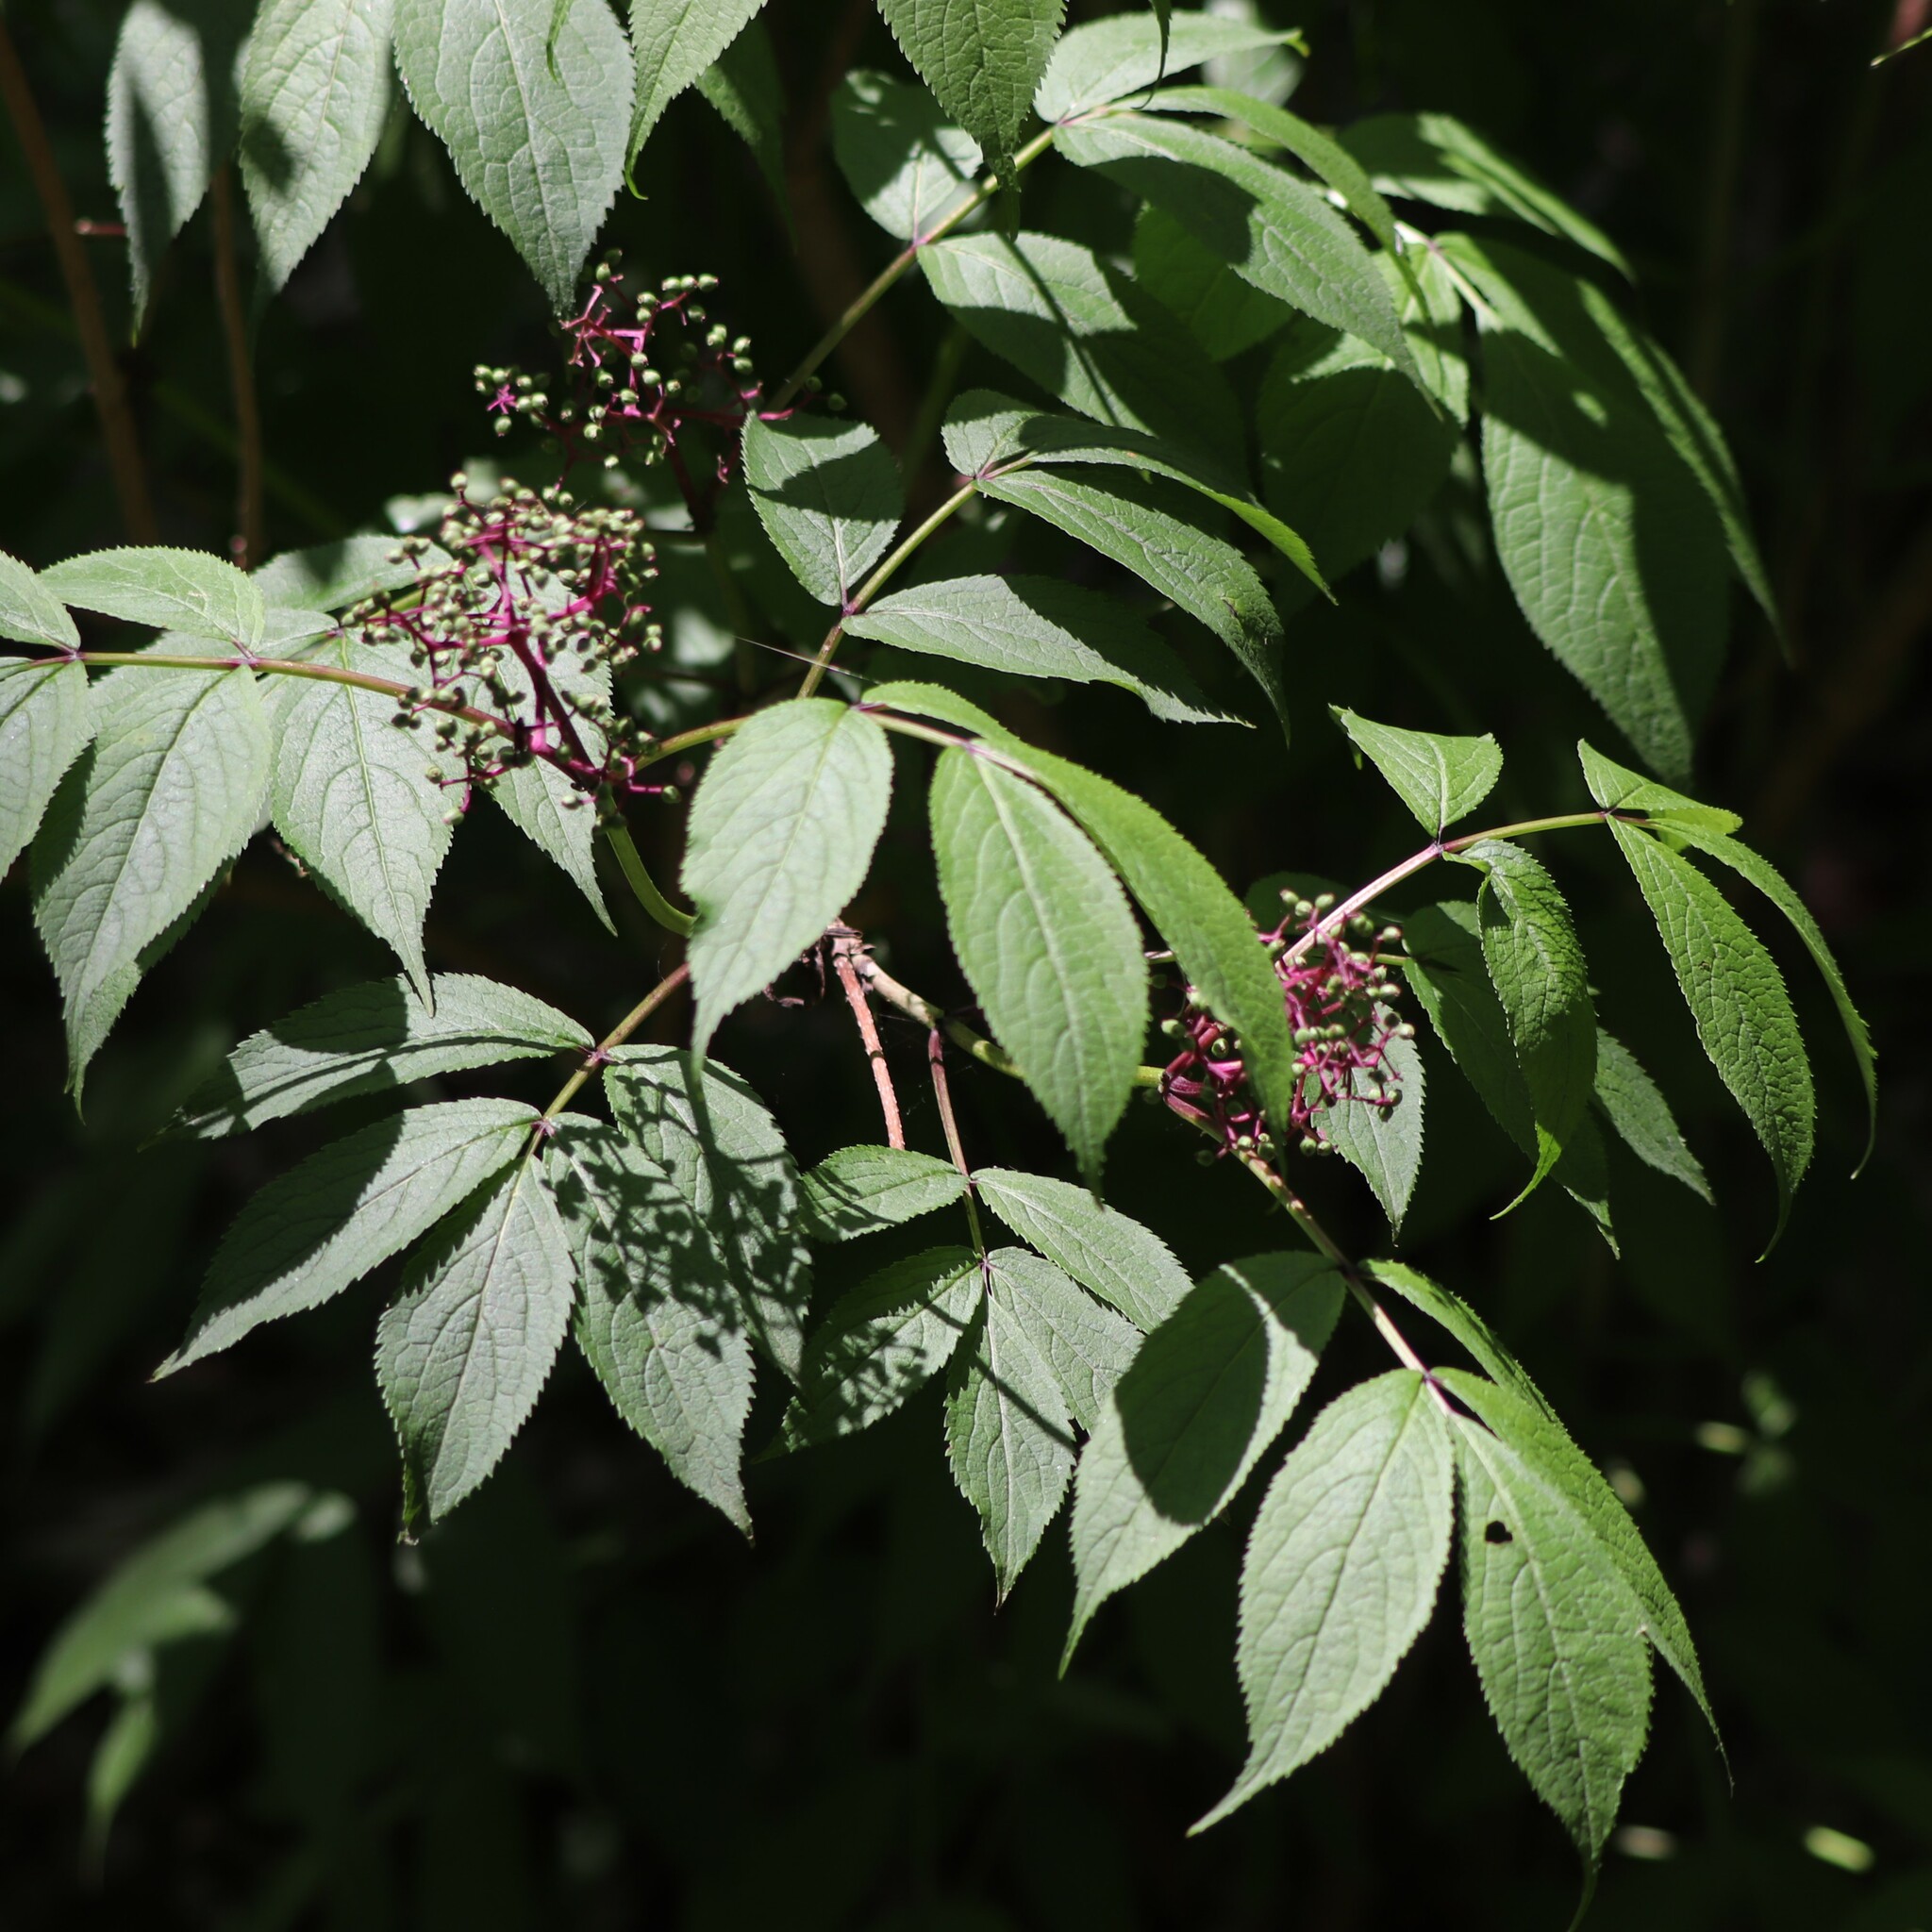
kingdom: Plantae
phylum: Tracheophyta
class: Magnoliopsida
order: Dipsacales
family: Viburnaceae
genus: Sambucus
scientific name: Sambucus racemosa
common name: Red-berried elder
